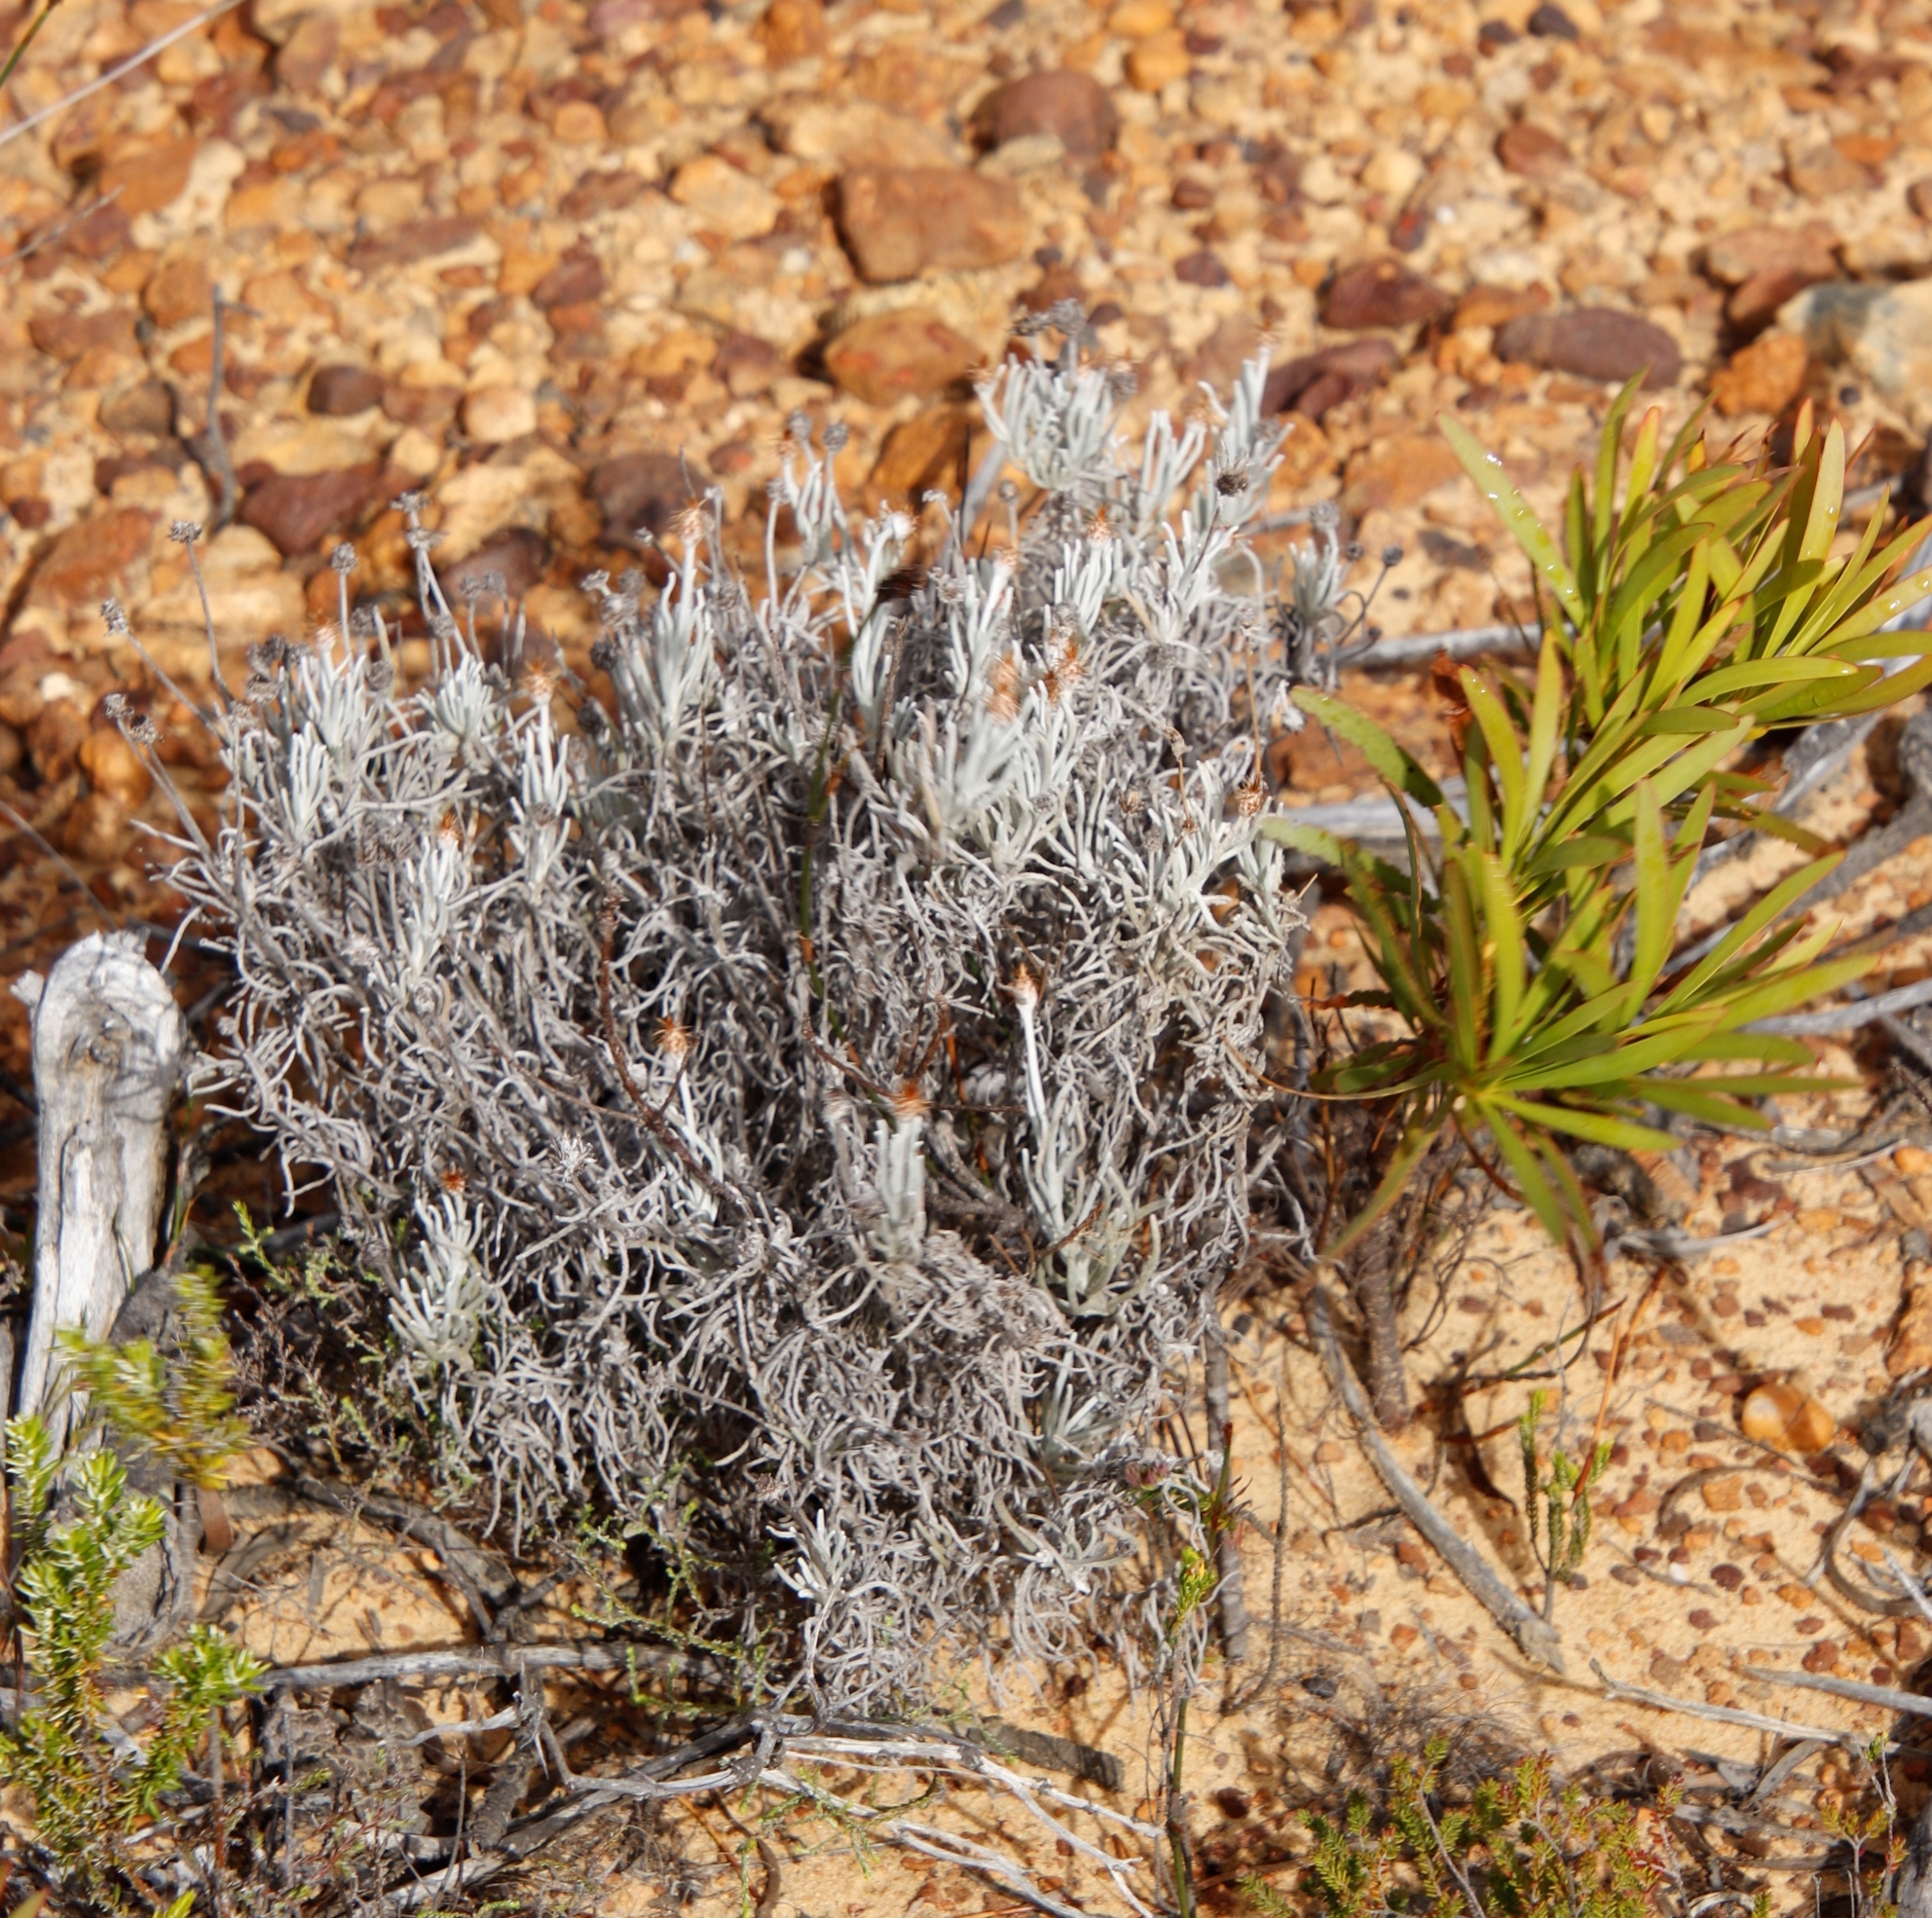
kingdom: Plantae
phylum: Tracheophyta
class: Magnoliopsida
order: Asterales
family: Asteraceae
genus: Syncarpha
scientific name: Syncarpha gnaphaloides
